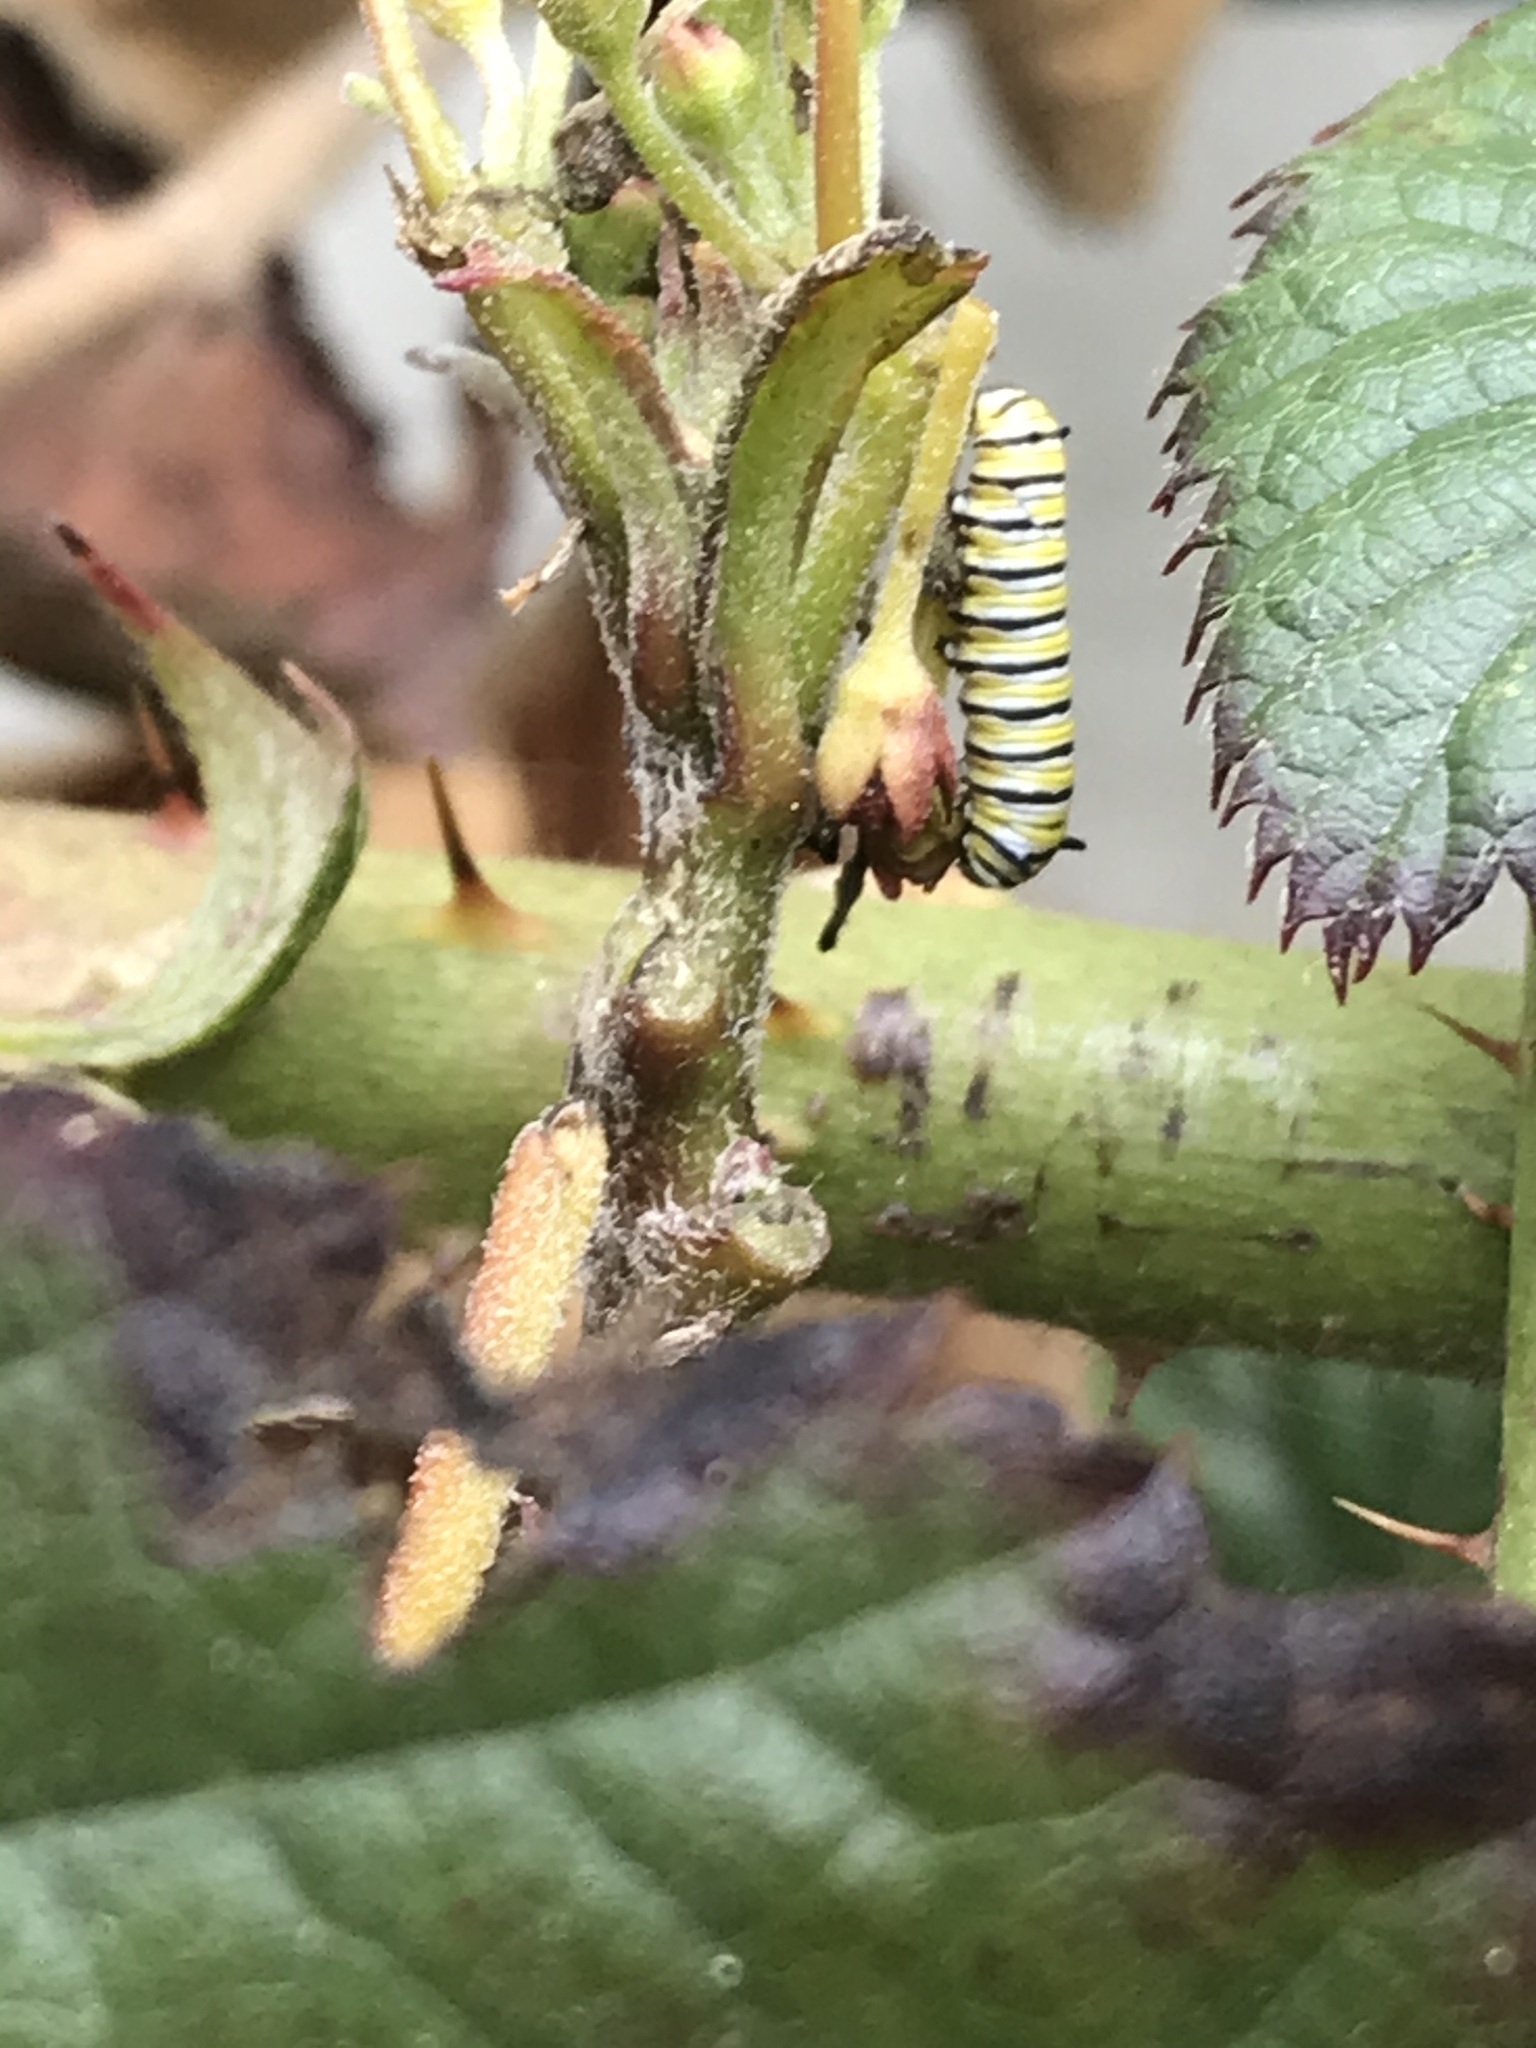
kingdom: Animalia
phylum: Arthropoda
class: Insecta
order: Lepidoptera
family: Nymphalidae
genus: Danaus
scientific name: Danaus plexippus
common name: Monarch
